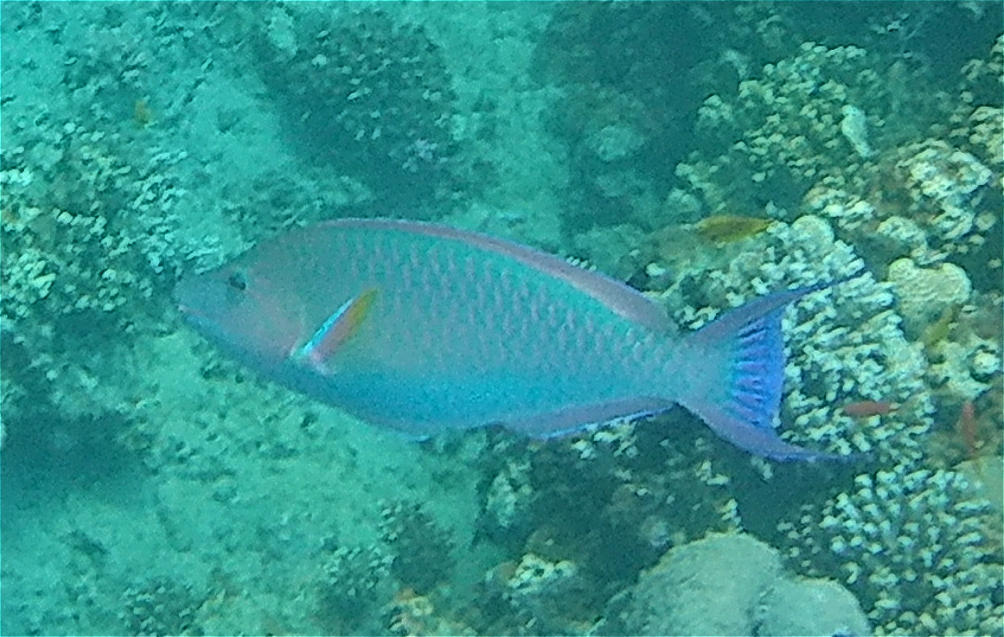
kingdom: Animalia
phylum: Chordata
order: Perciformes
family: Scaridae
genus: Hipposcarus
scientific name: Hipposcarus harid
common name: Candelamoa parrotfish
